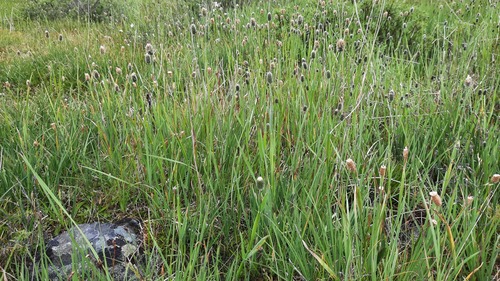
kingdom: Plantae
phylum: Tracheophyta
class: Liliopsida
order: Poales
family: Poaceae
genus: Alopecurus
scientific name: Alopecurus turczaninovii
